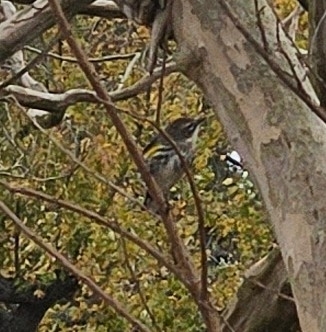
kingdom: Animalia
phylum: Chordata
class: Aves
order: Passeriformes
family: Parulidae
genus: Setophaga
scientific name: Setophaga coronata
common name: Myrtle warbler
